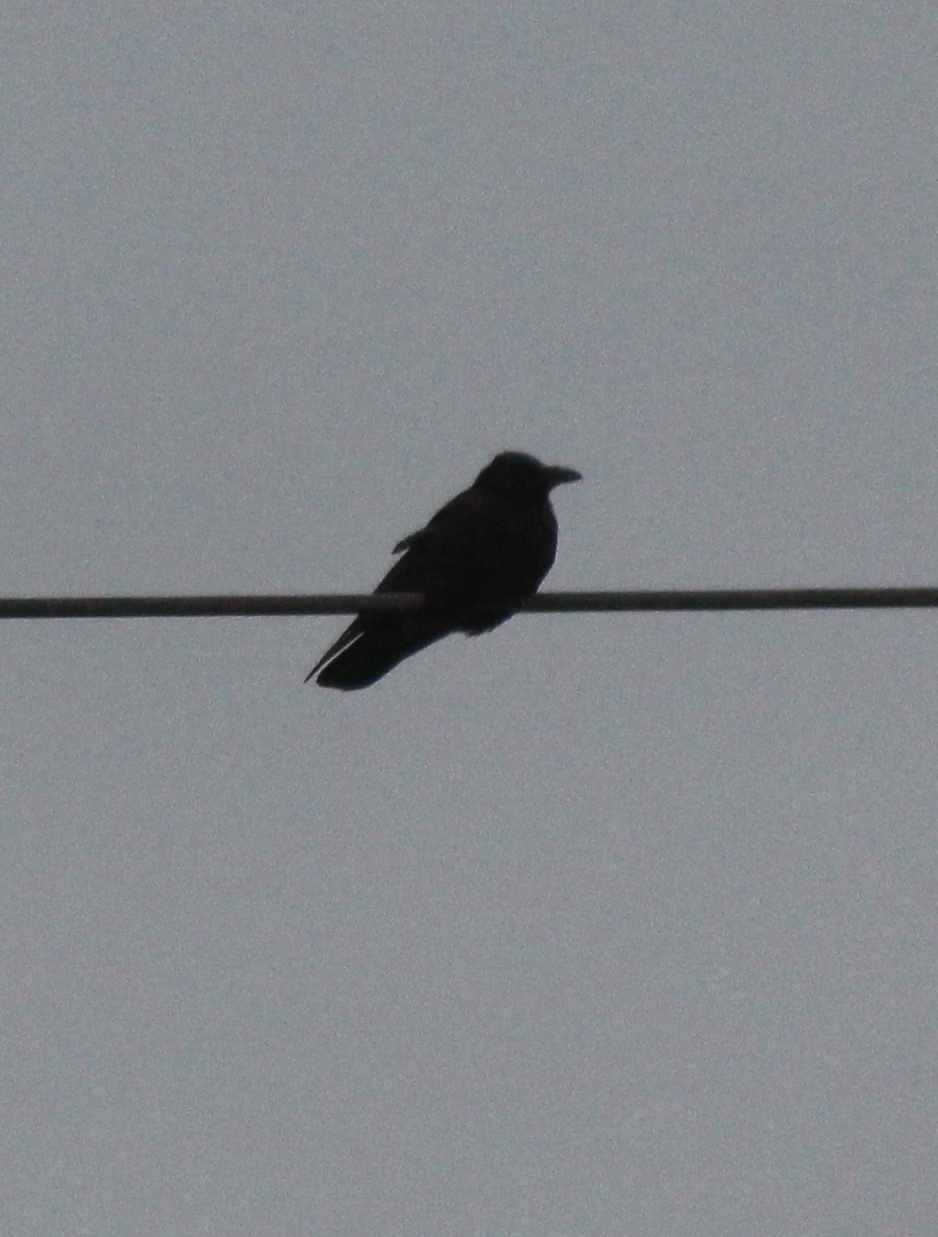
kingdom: Animalia
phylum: Chordata
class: Aves
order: Passeriformes
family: Corvidae
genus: Corvus
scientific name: Corvus corone
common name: Carrion crow
